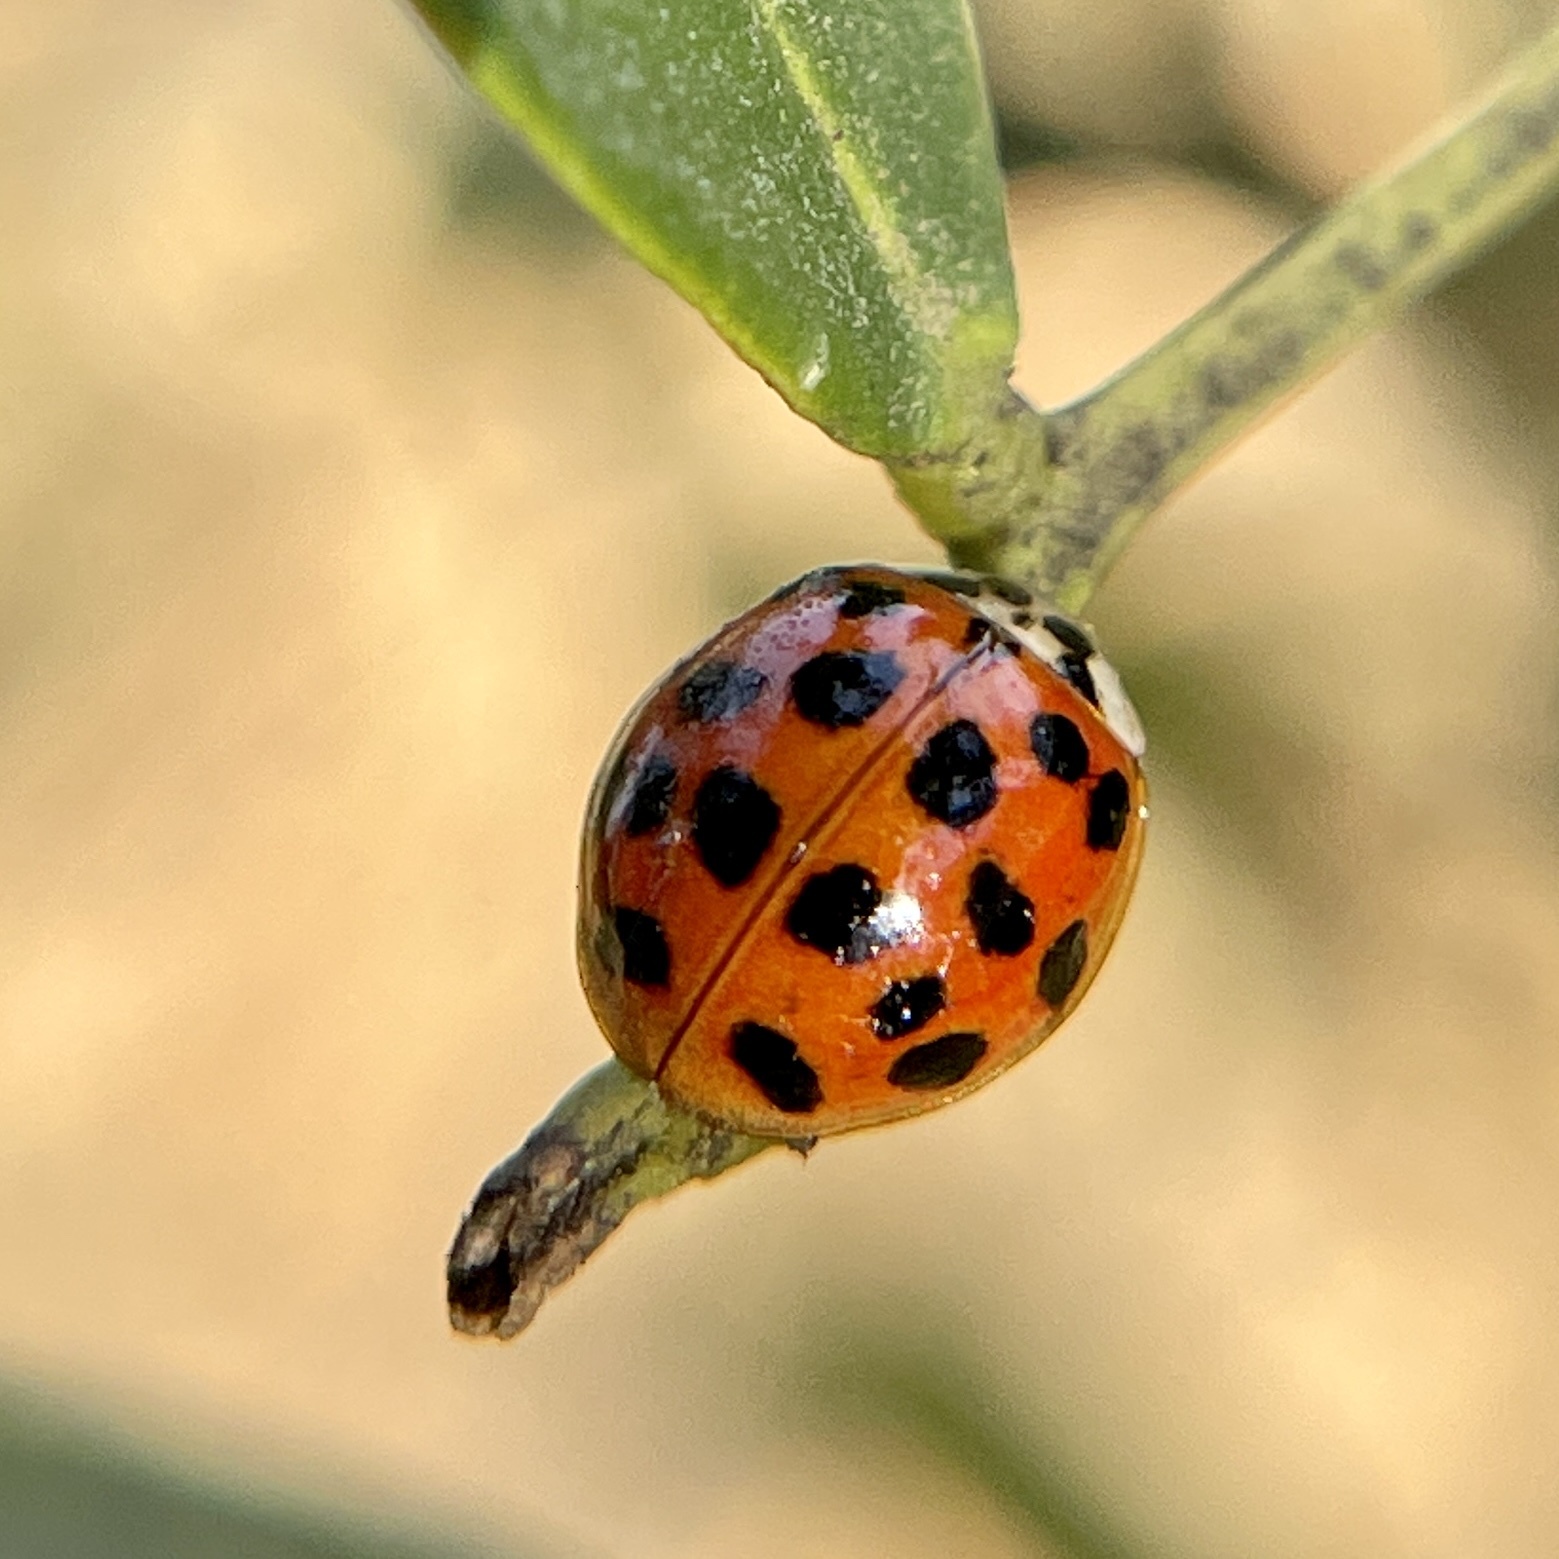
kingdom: Animalia
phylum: Arthropoda
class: Insecta
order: Coleoptera
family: Coccinellidae
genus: Harmonia
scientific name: Harmonia axyridis
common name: Harlequin ladybird
